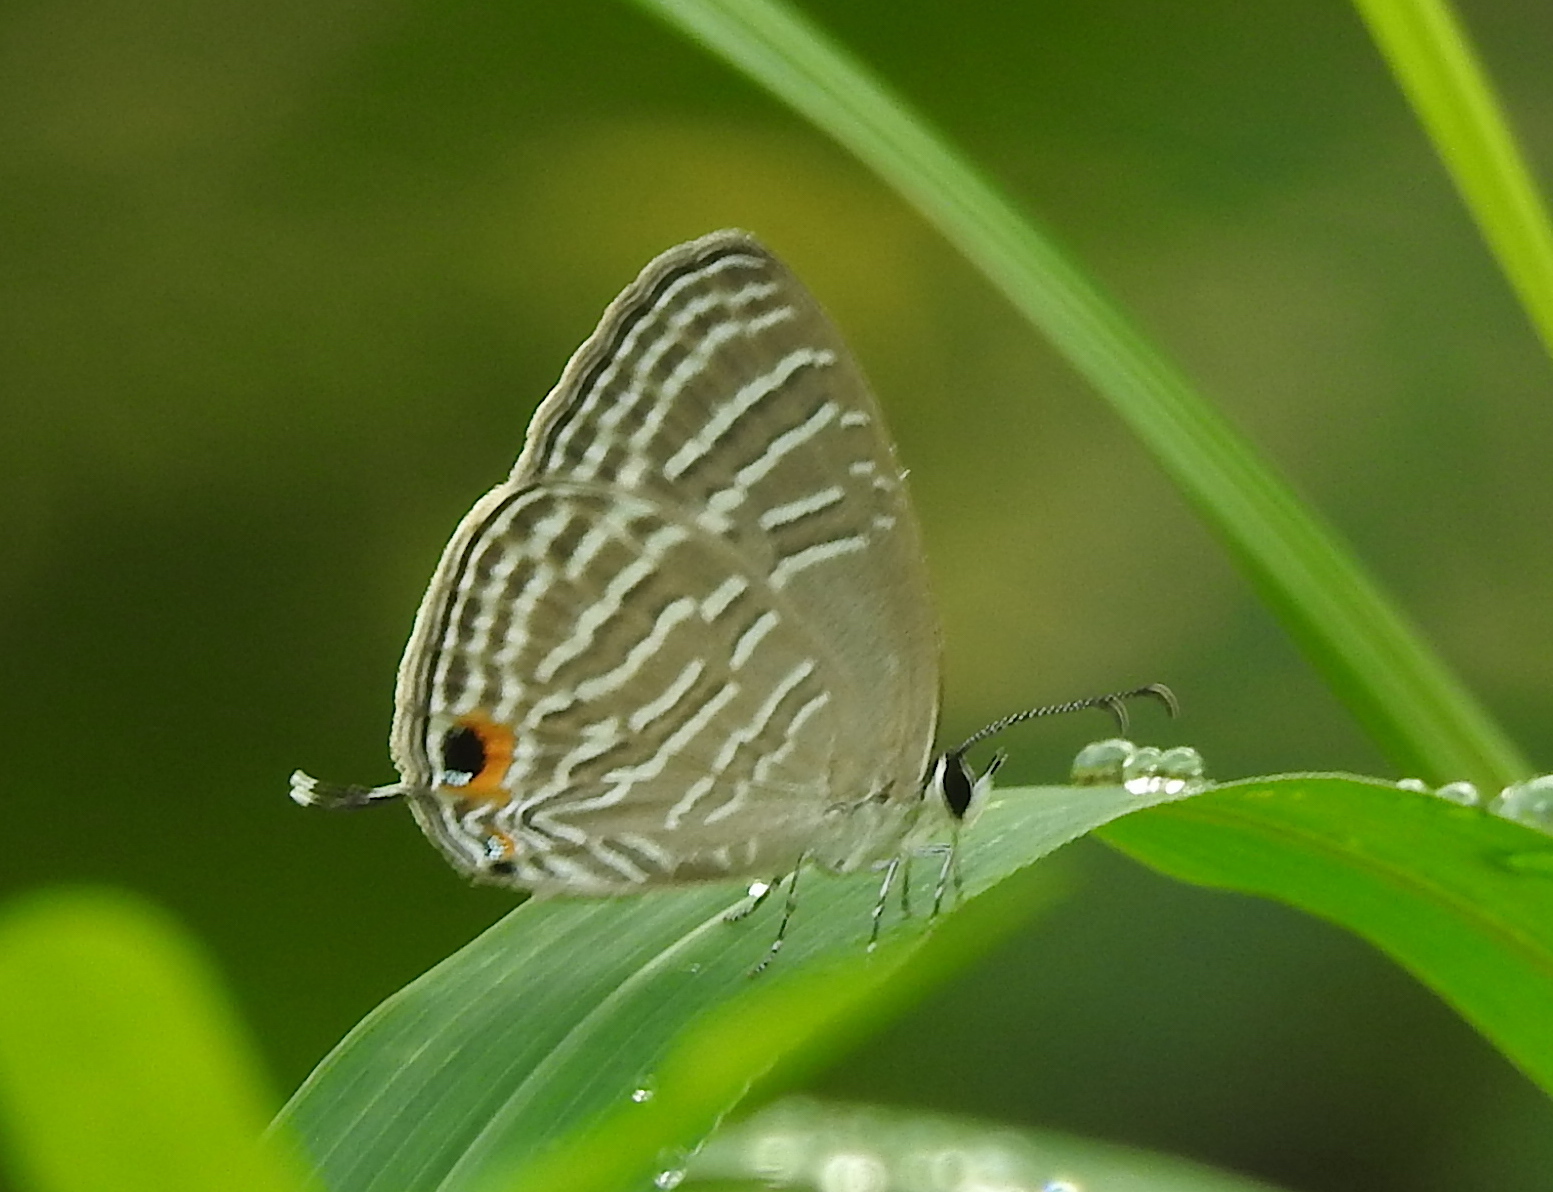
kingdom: Animalia
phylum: Arthropoda
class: Insecta
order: Lepidoptera
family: Lycaenidae
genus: Jamides
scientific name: Jamides celeno
